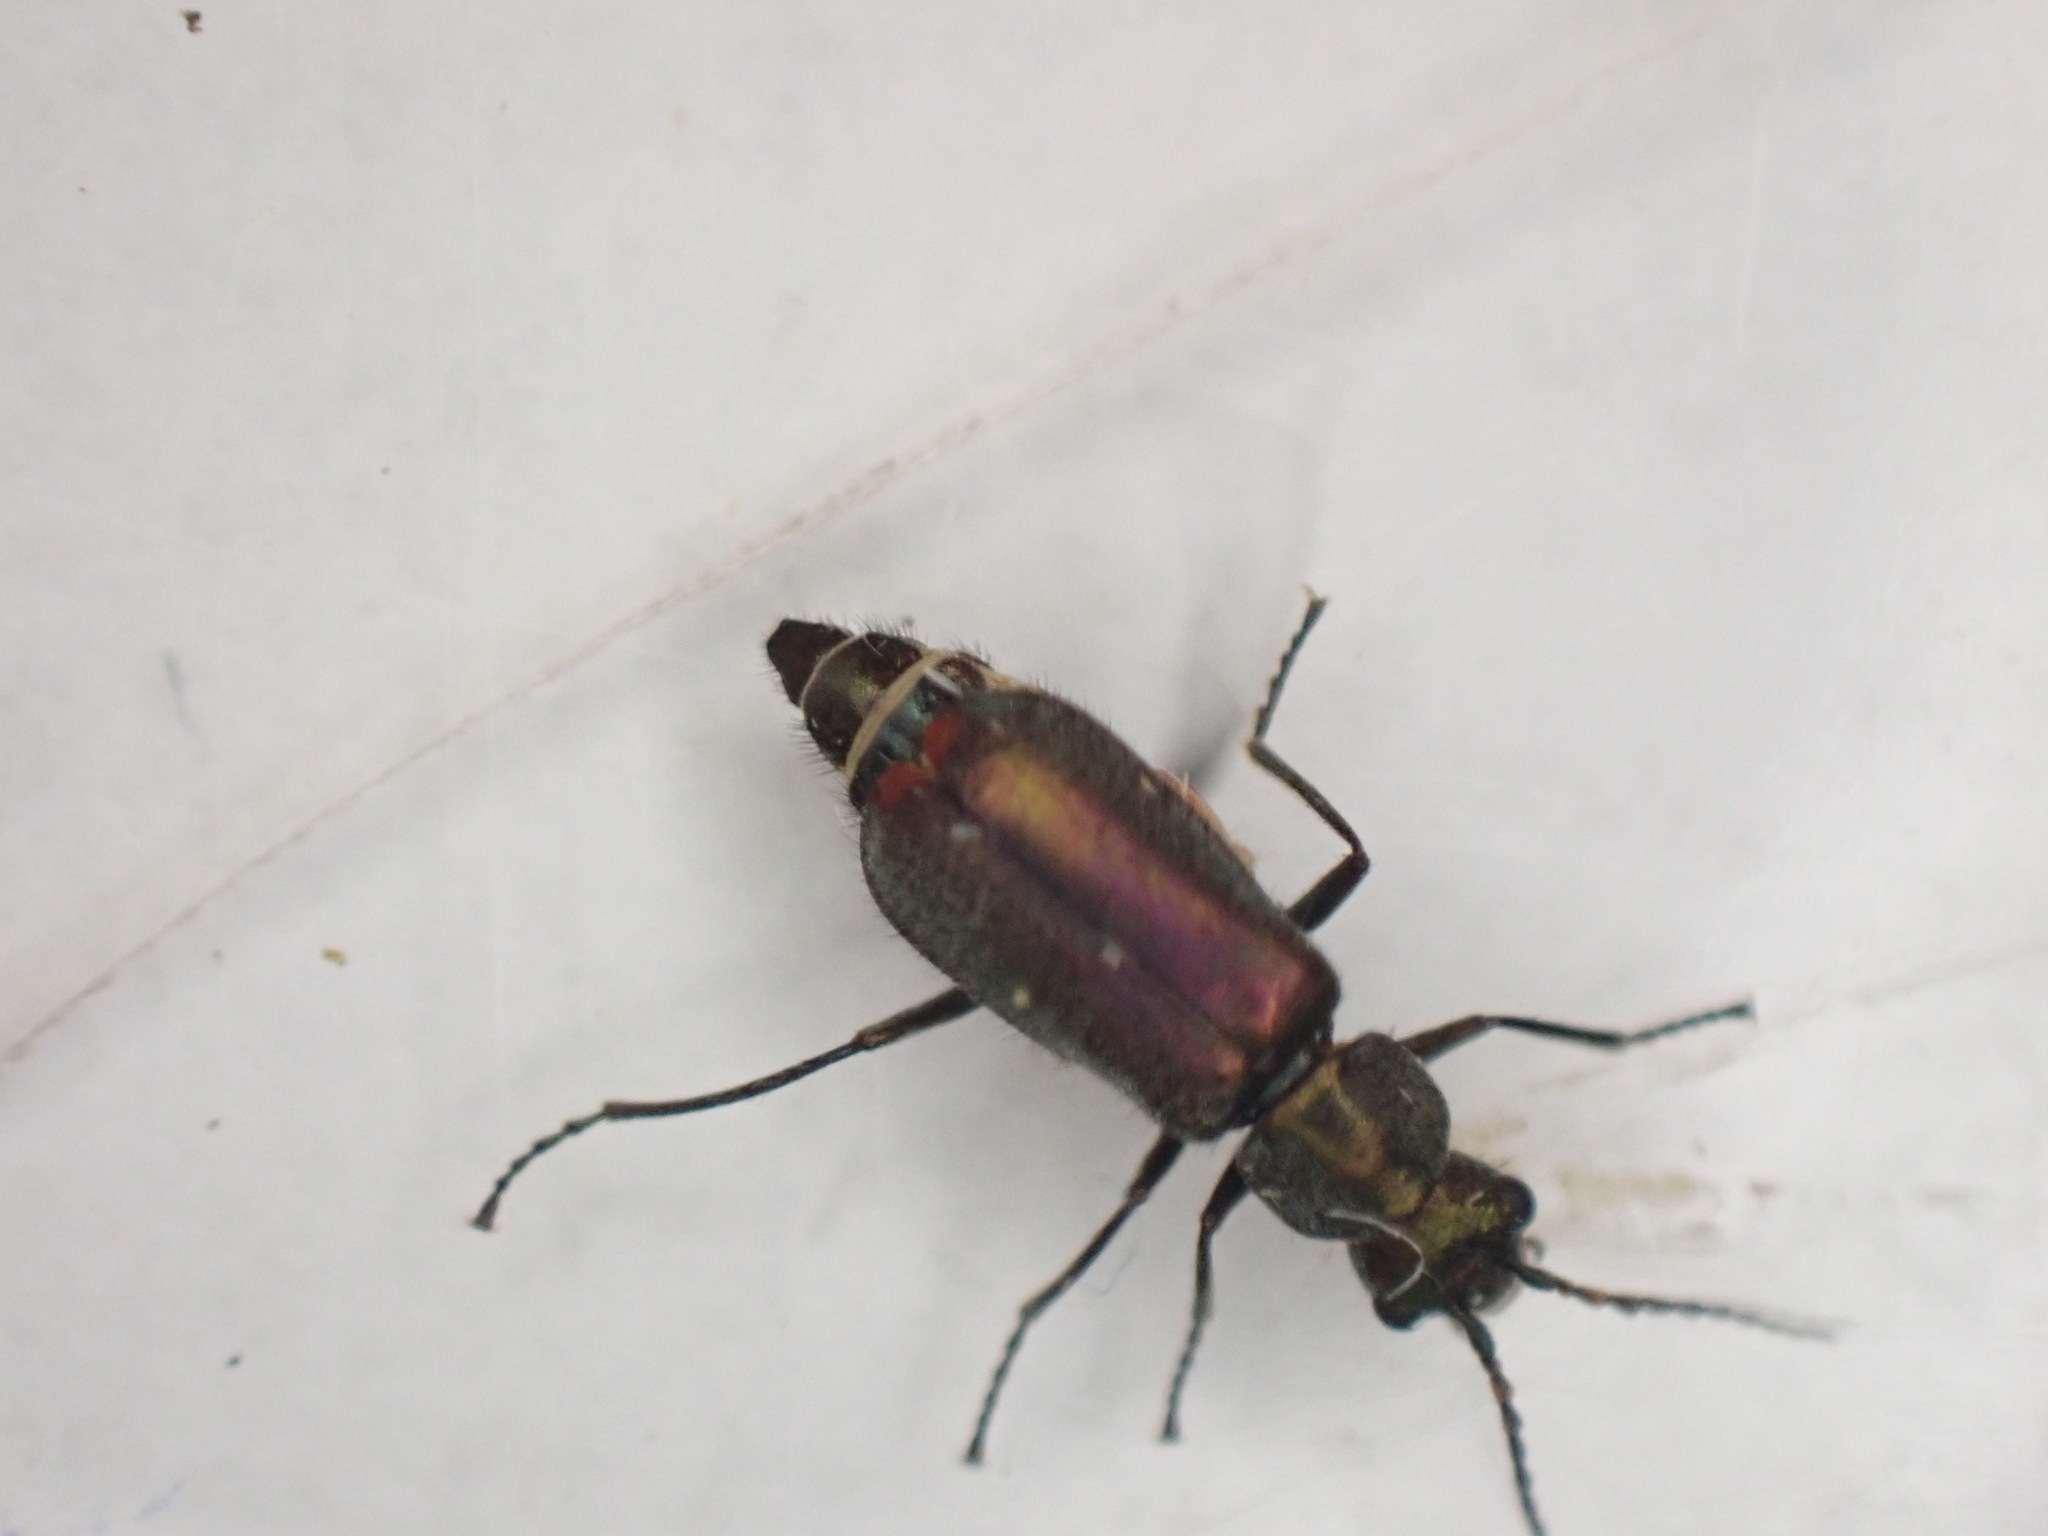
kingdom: Animalia
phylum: Arthropoda
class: Insecta
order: Coleoptera
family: Malachiidae
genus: Cordylepherus
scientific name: Cordylepherus viridis
